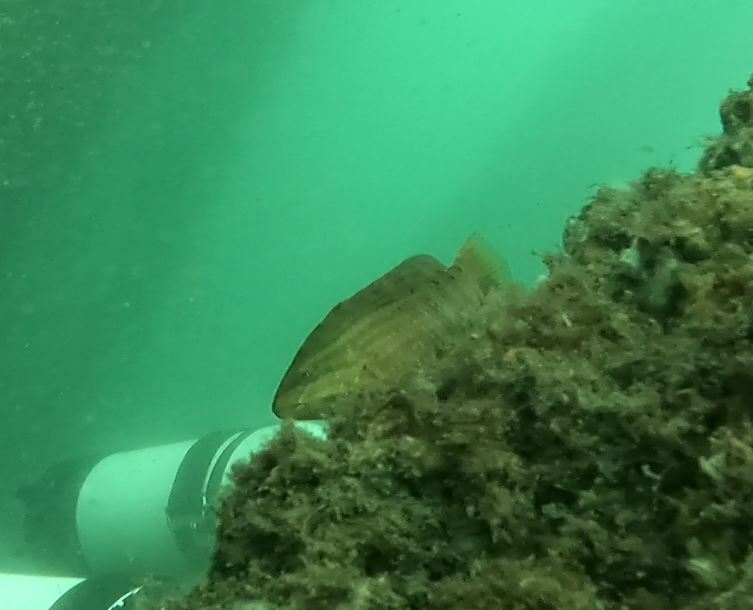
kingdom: Animalia
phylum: Chordata
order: Perciformes
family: Labridae
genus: Pseudolabrus
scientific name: Pseudolabrus guentheri
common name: Günther's wrasse
